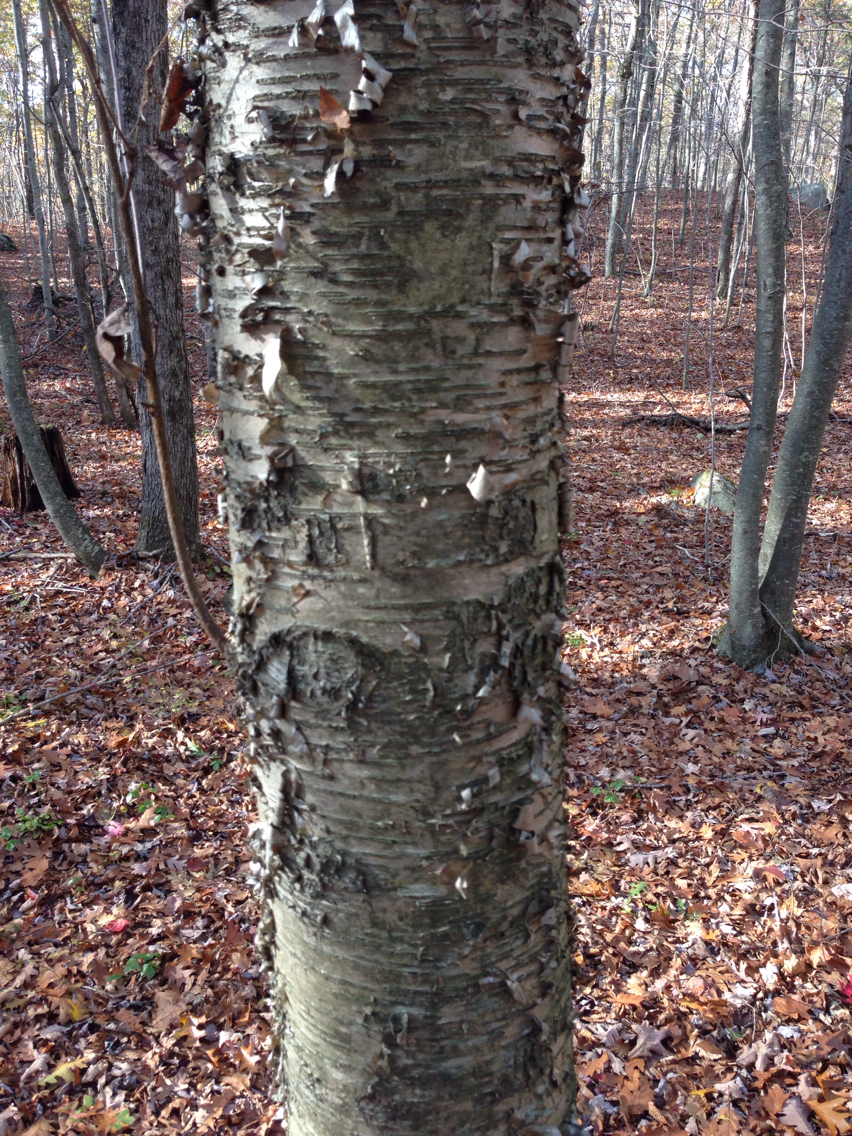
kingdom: Plantae
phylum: Tracheophyta
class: Magnoliopsida
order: Fagales
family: Betulaceae
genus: Betula
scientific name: Betula alleghaniensis
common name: Yellow birch
